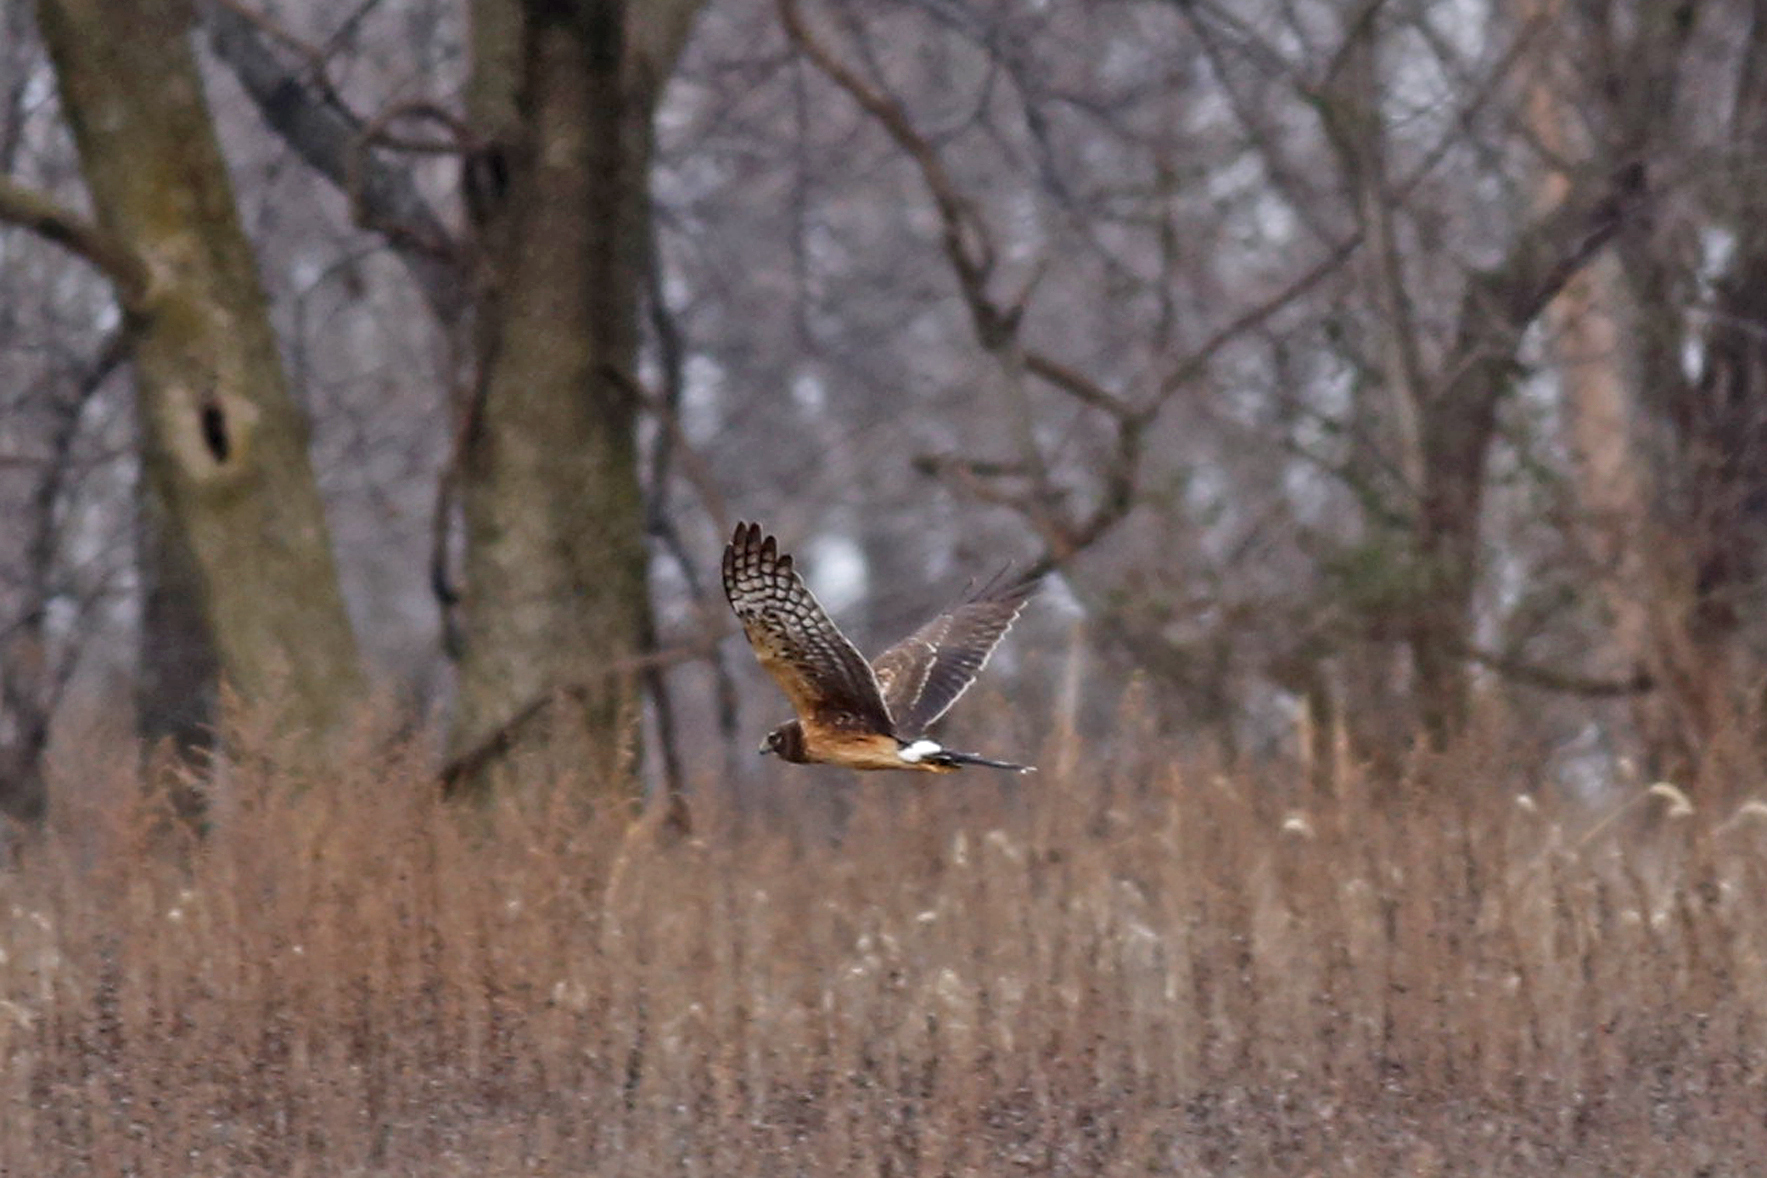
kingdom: Animalia
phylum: Chordata
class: Aves
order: Accipitriformes
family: Accipitridae
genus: Circus
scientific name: Circus cyaneus
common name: Hen harrier
